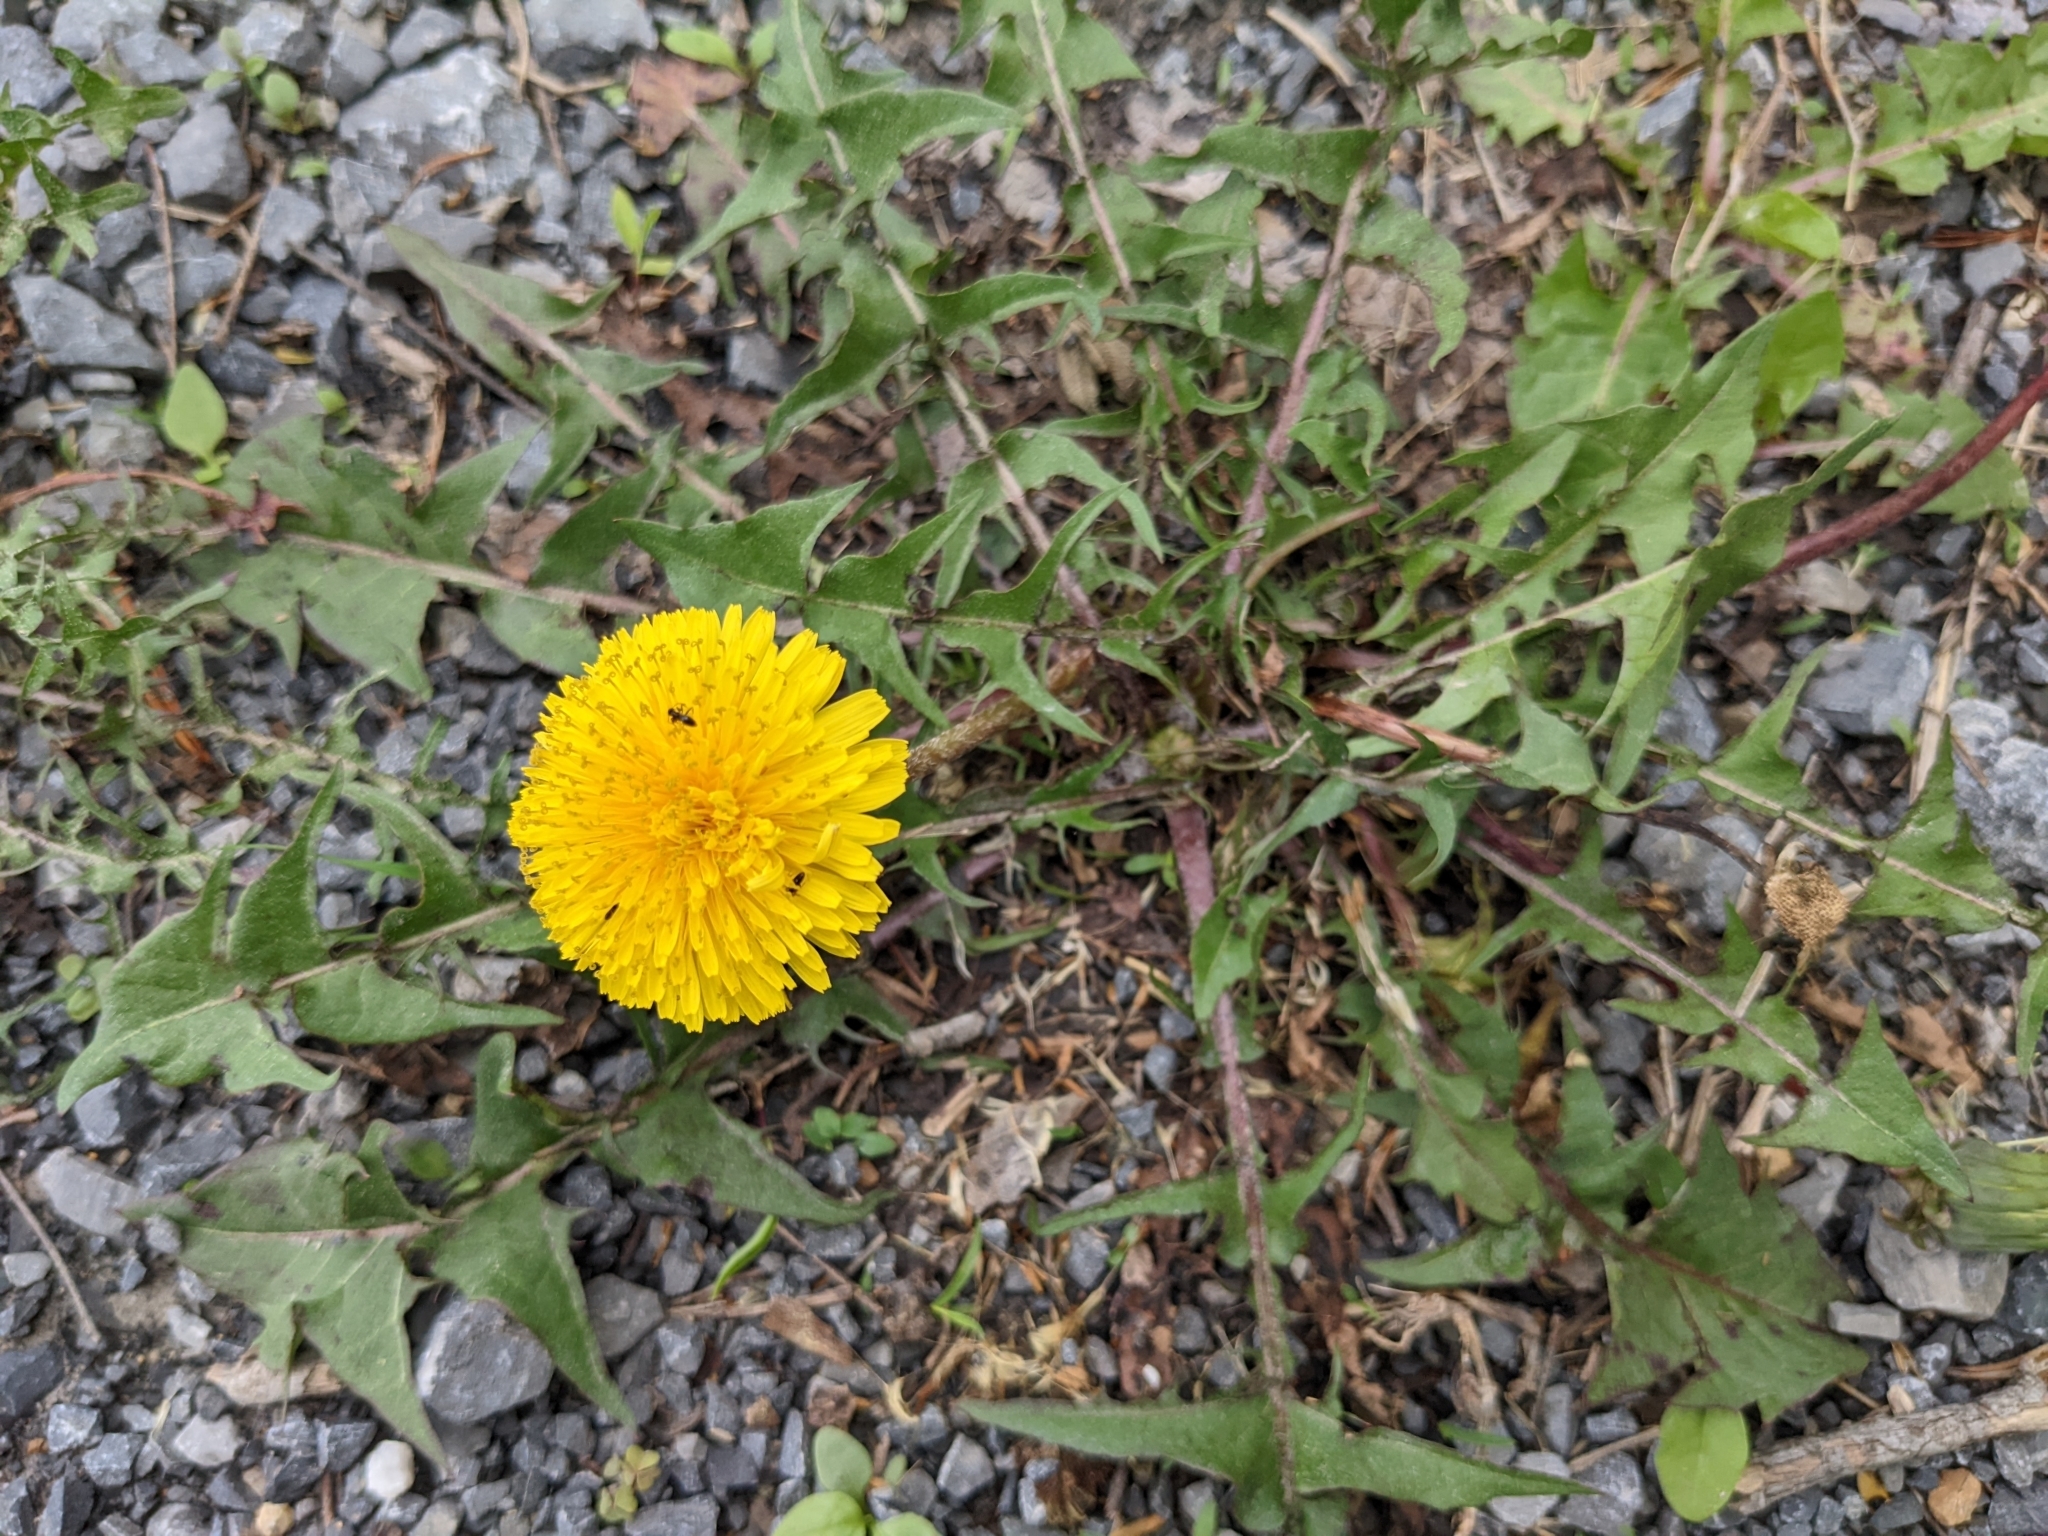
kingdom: Plantae
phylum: Tracheophyta
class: Magnoliopsida
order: Asterales
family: Asteraceae
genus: Taraxacum
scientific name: Taraxacum
